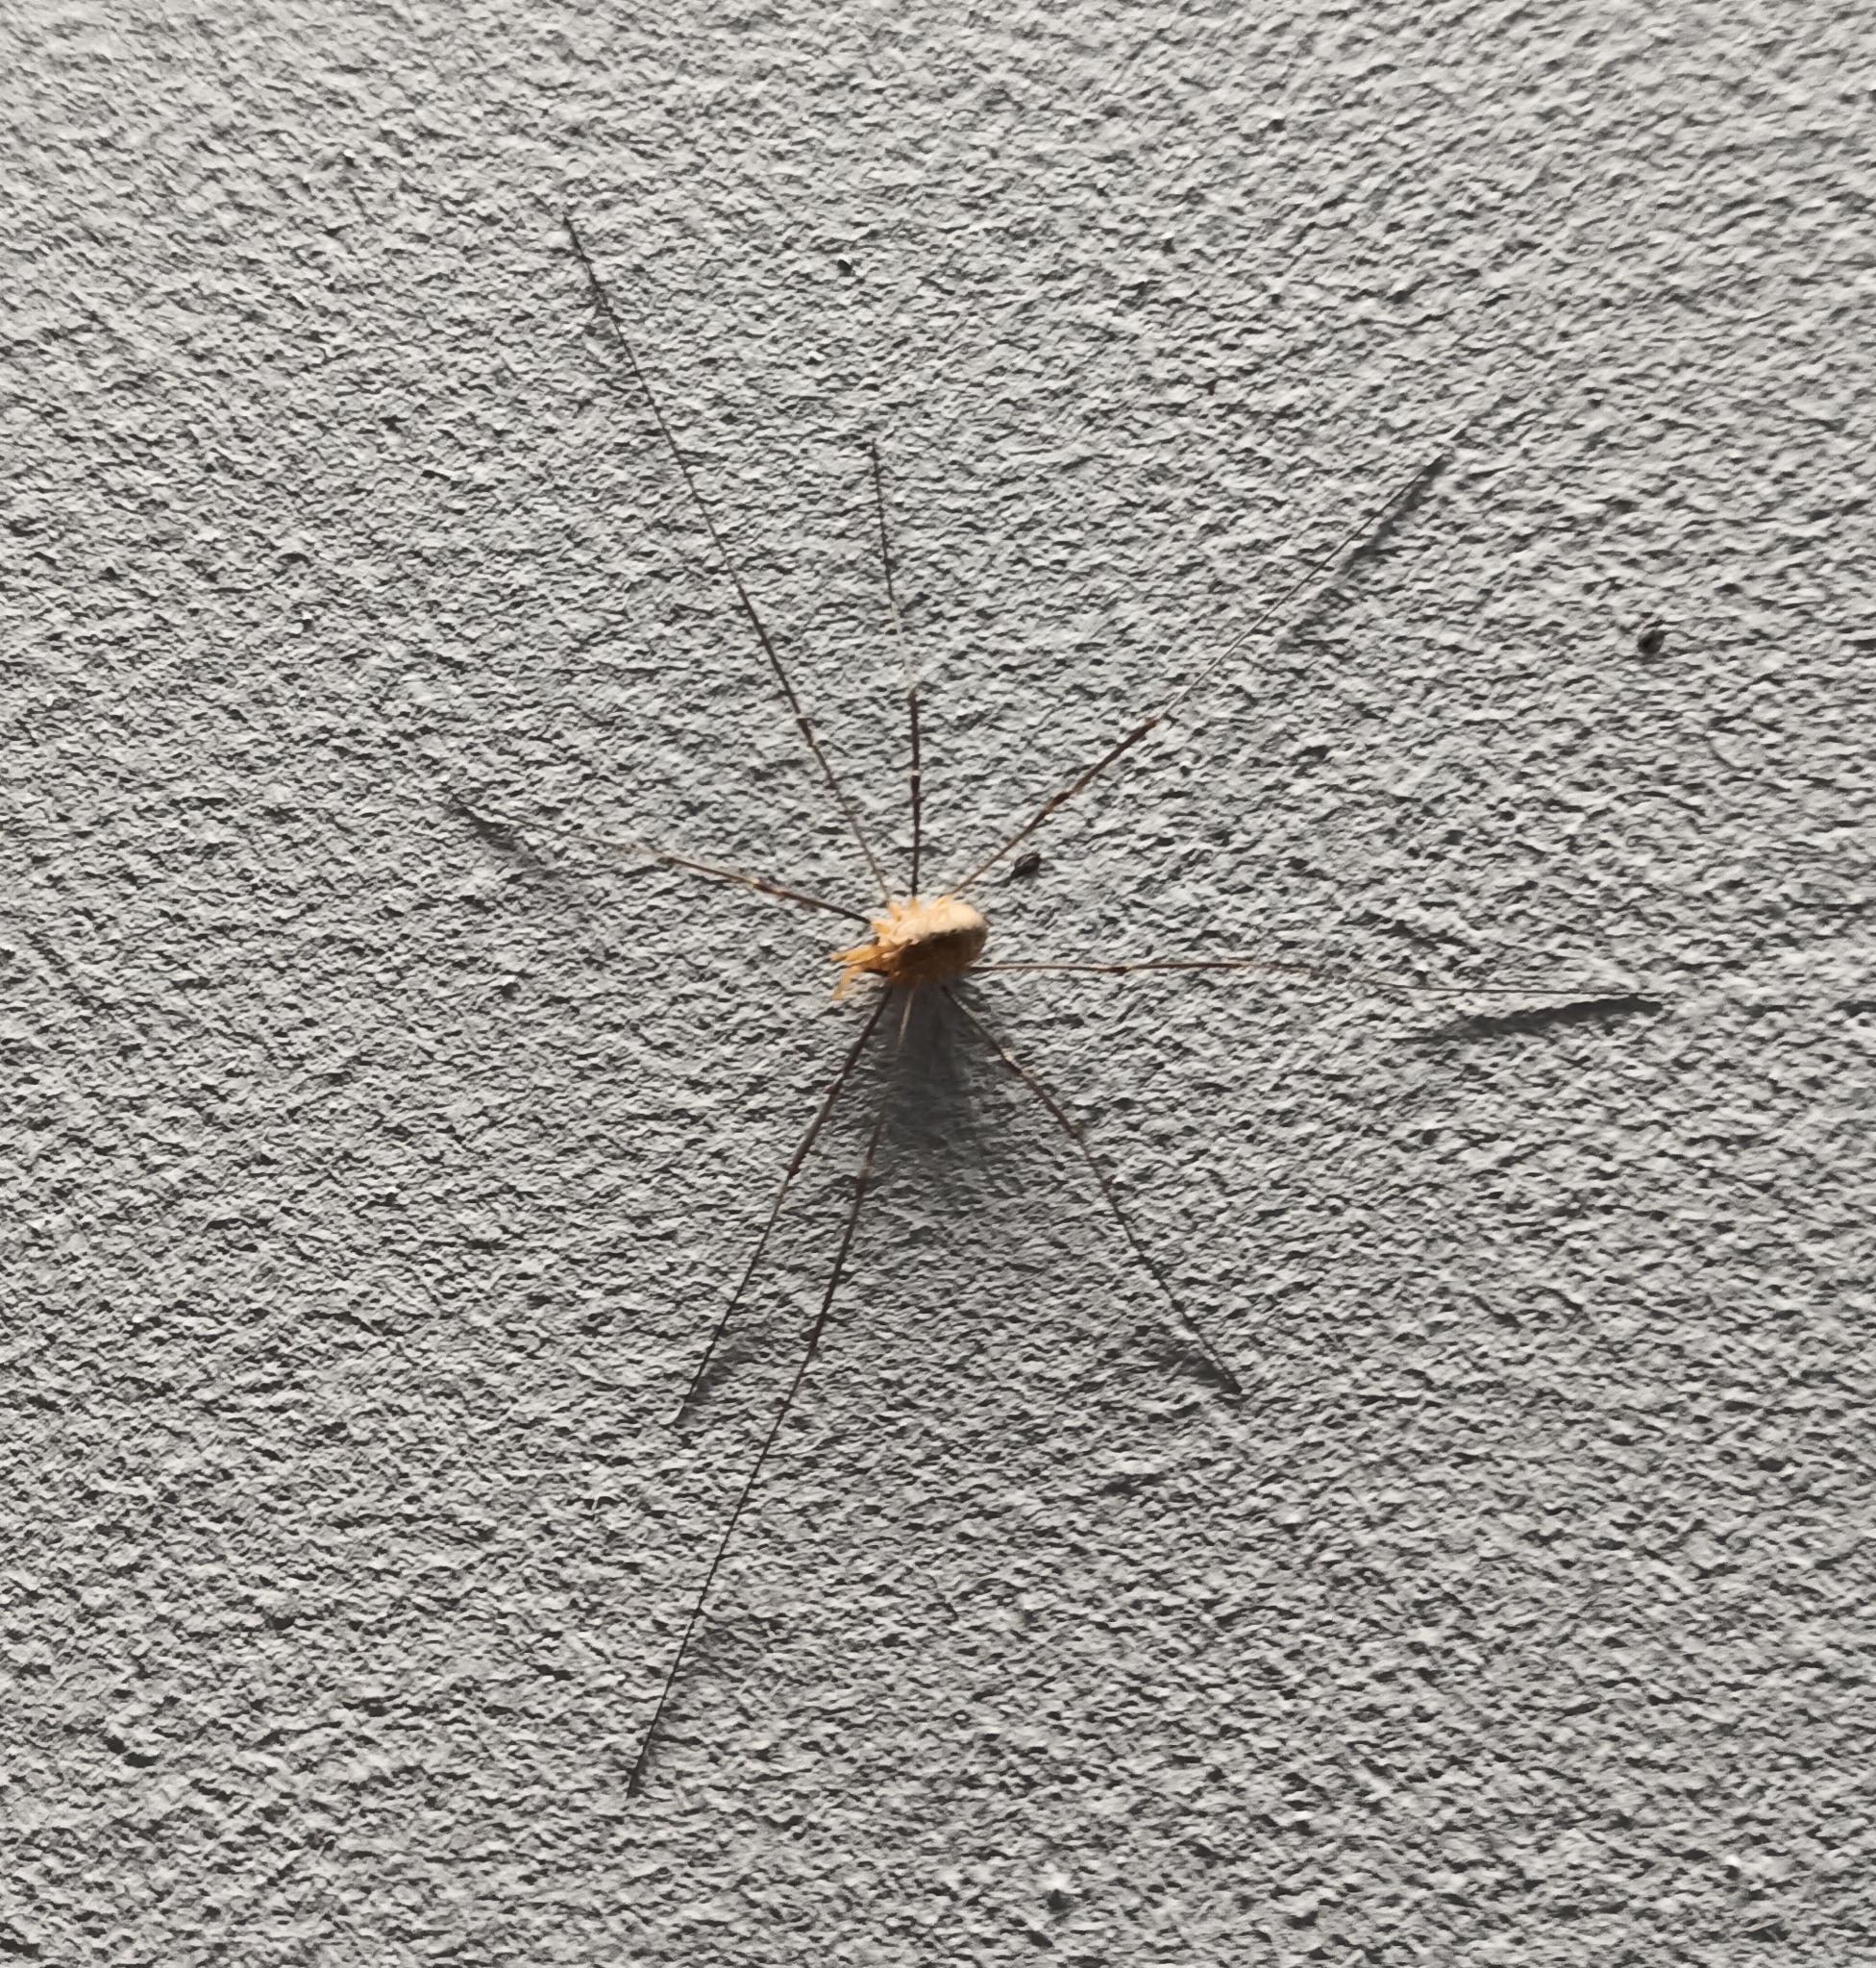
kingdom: Animalia
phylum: Arthropoda
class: Arachnida
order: Opiliones
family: Phalangiidae
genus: Phalangium
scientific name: Phalangium opilio
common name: Daddy longleg
